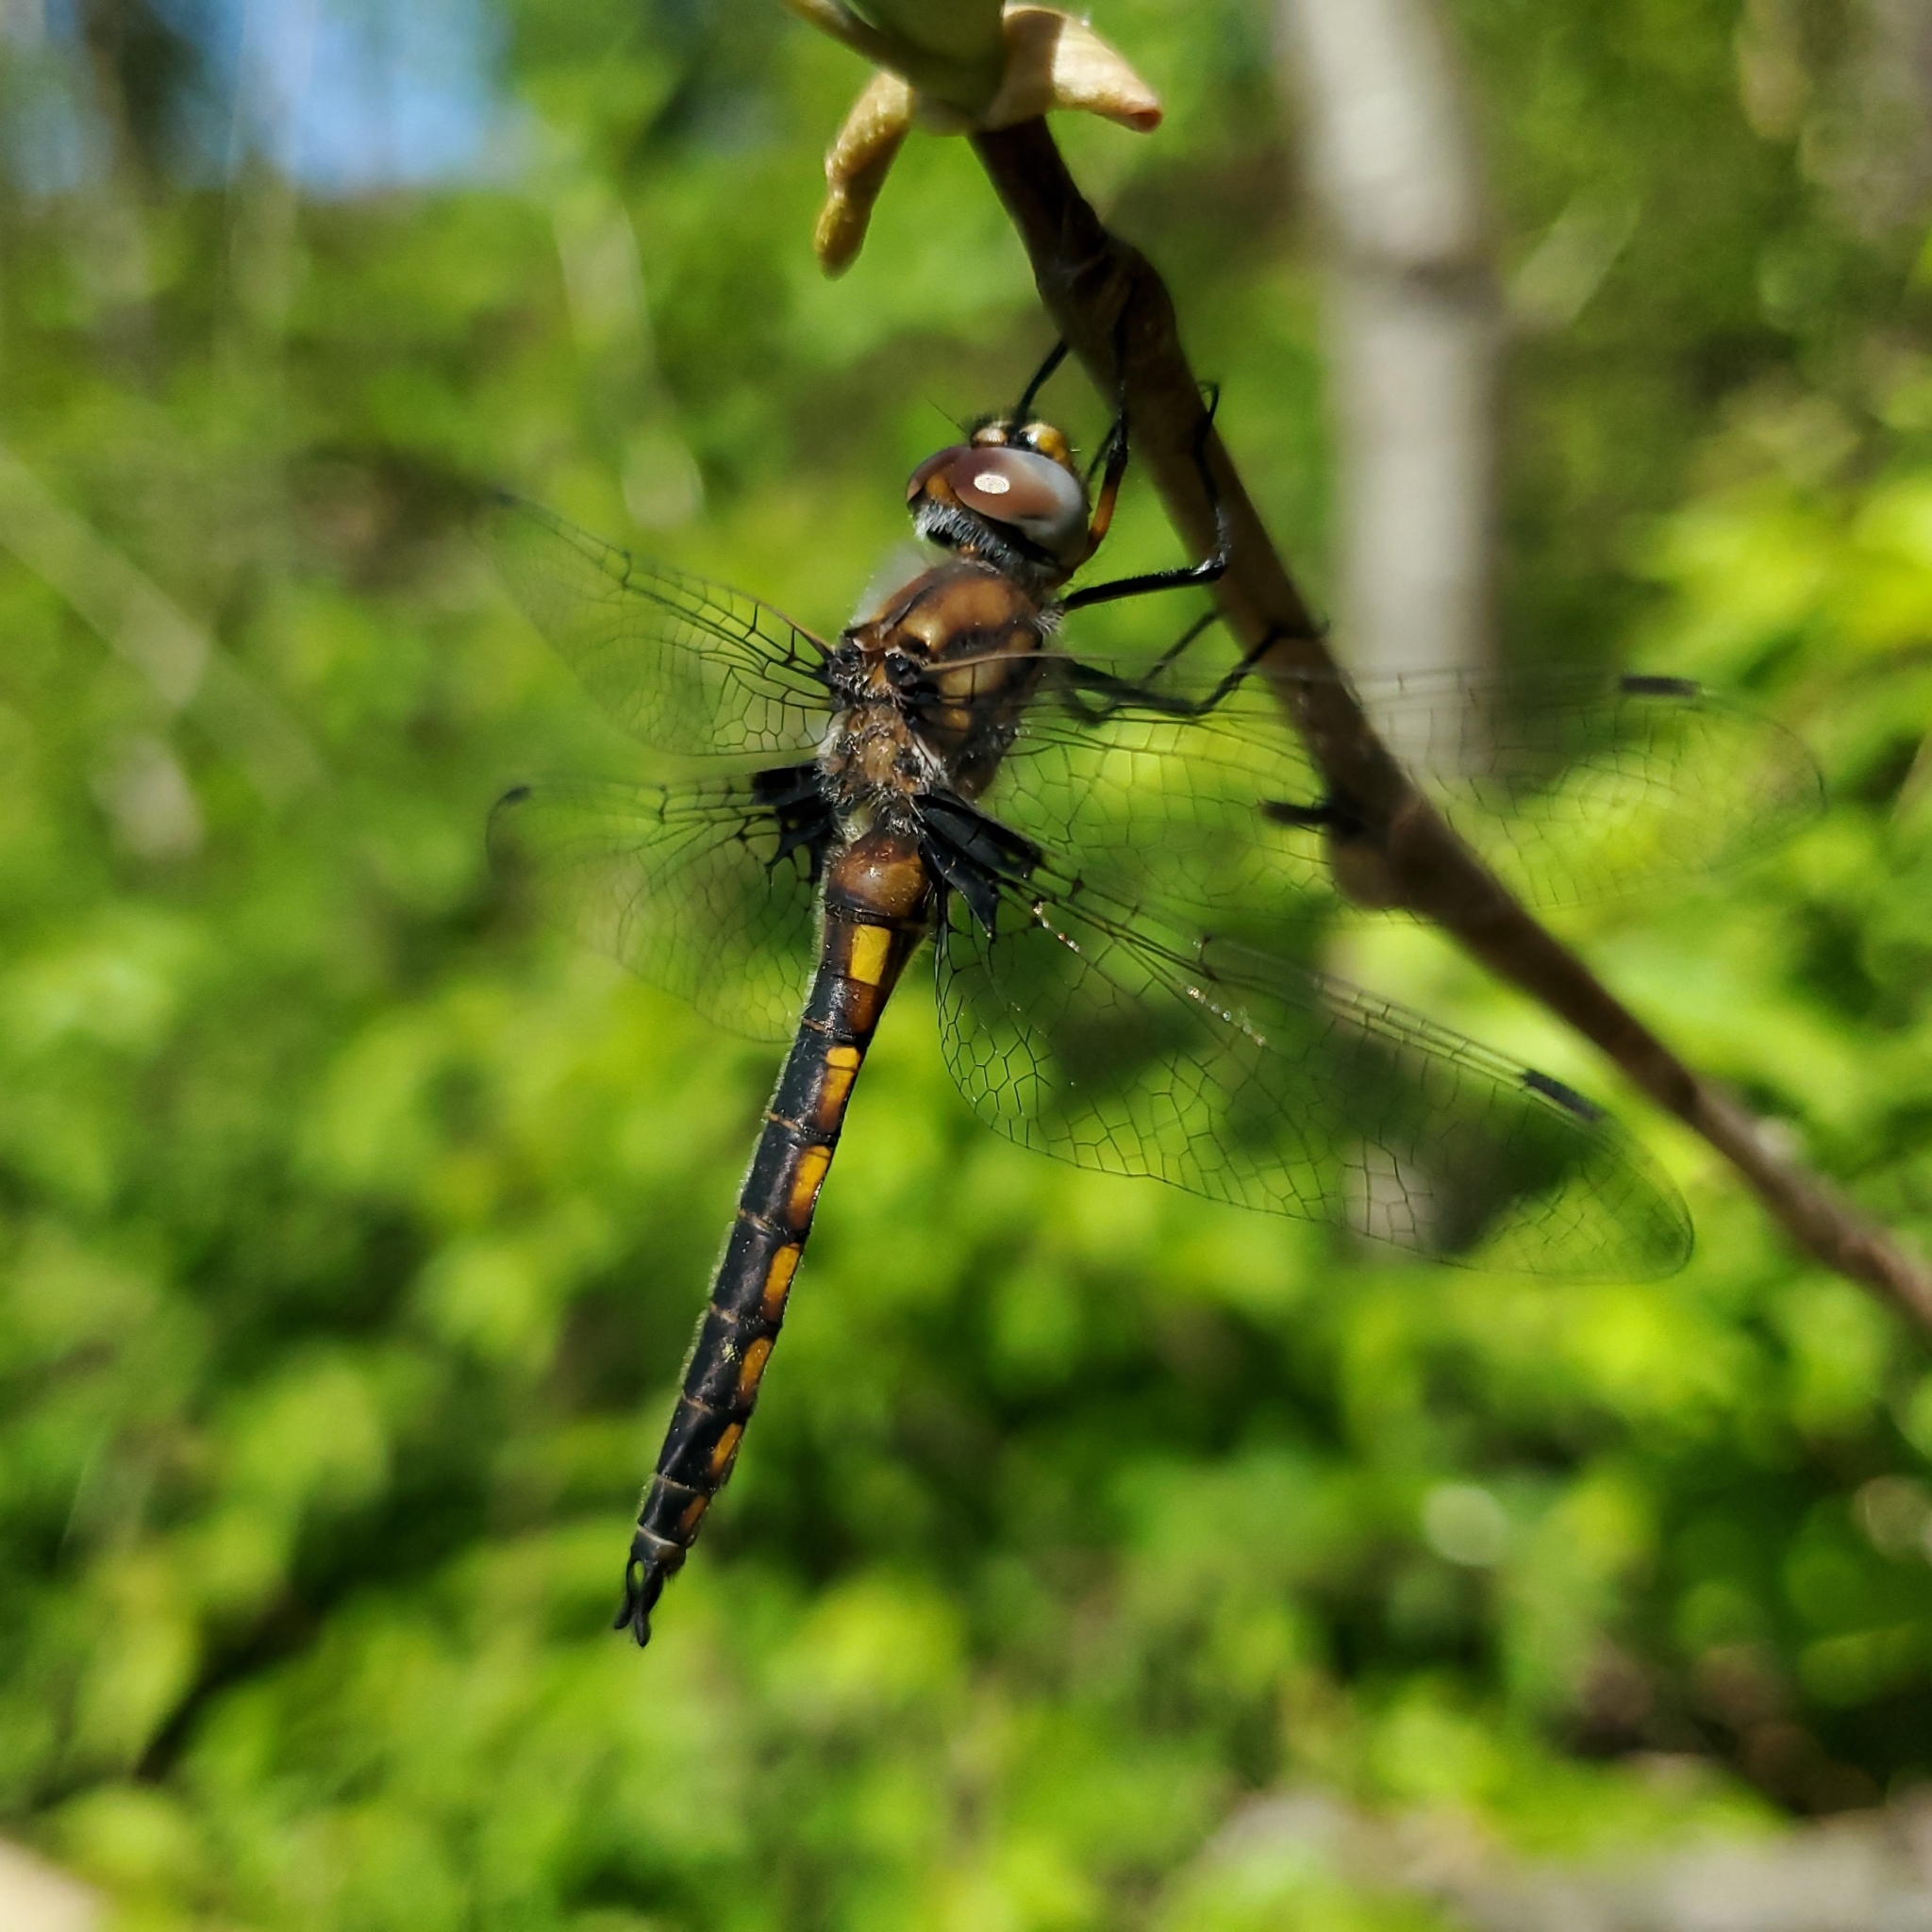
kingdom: Animalia
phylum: Arthropoda
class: Insecta
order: Odonata
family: Corduliidae
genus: Epitheca
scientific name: Epitheca cynosura
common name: Common baskettail
